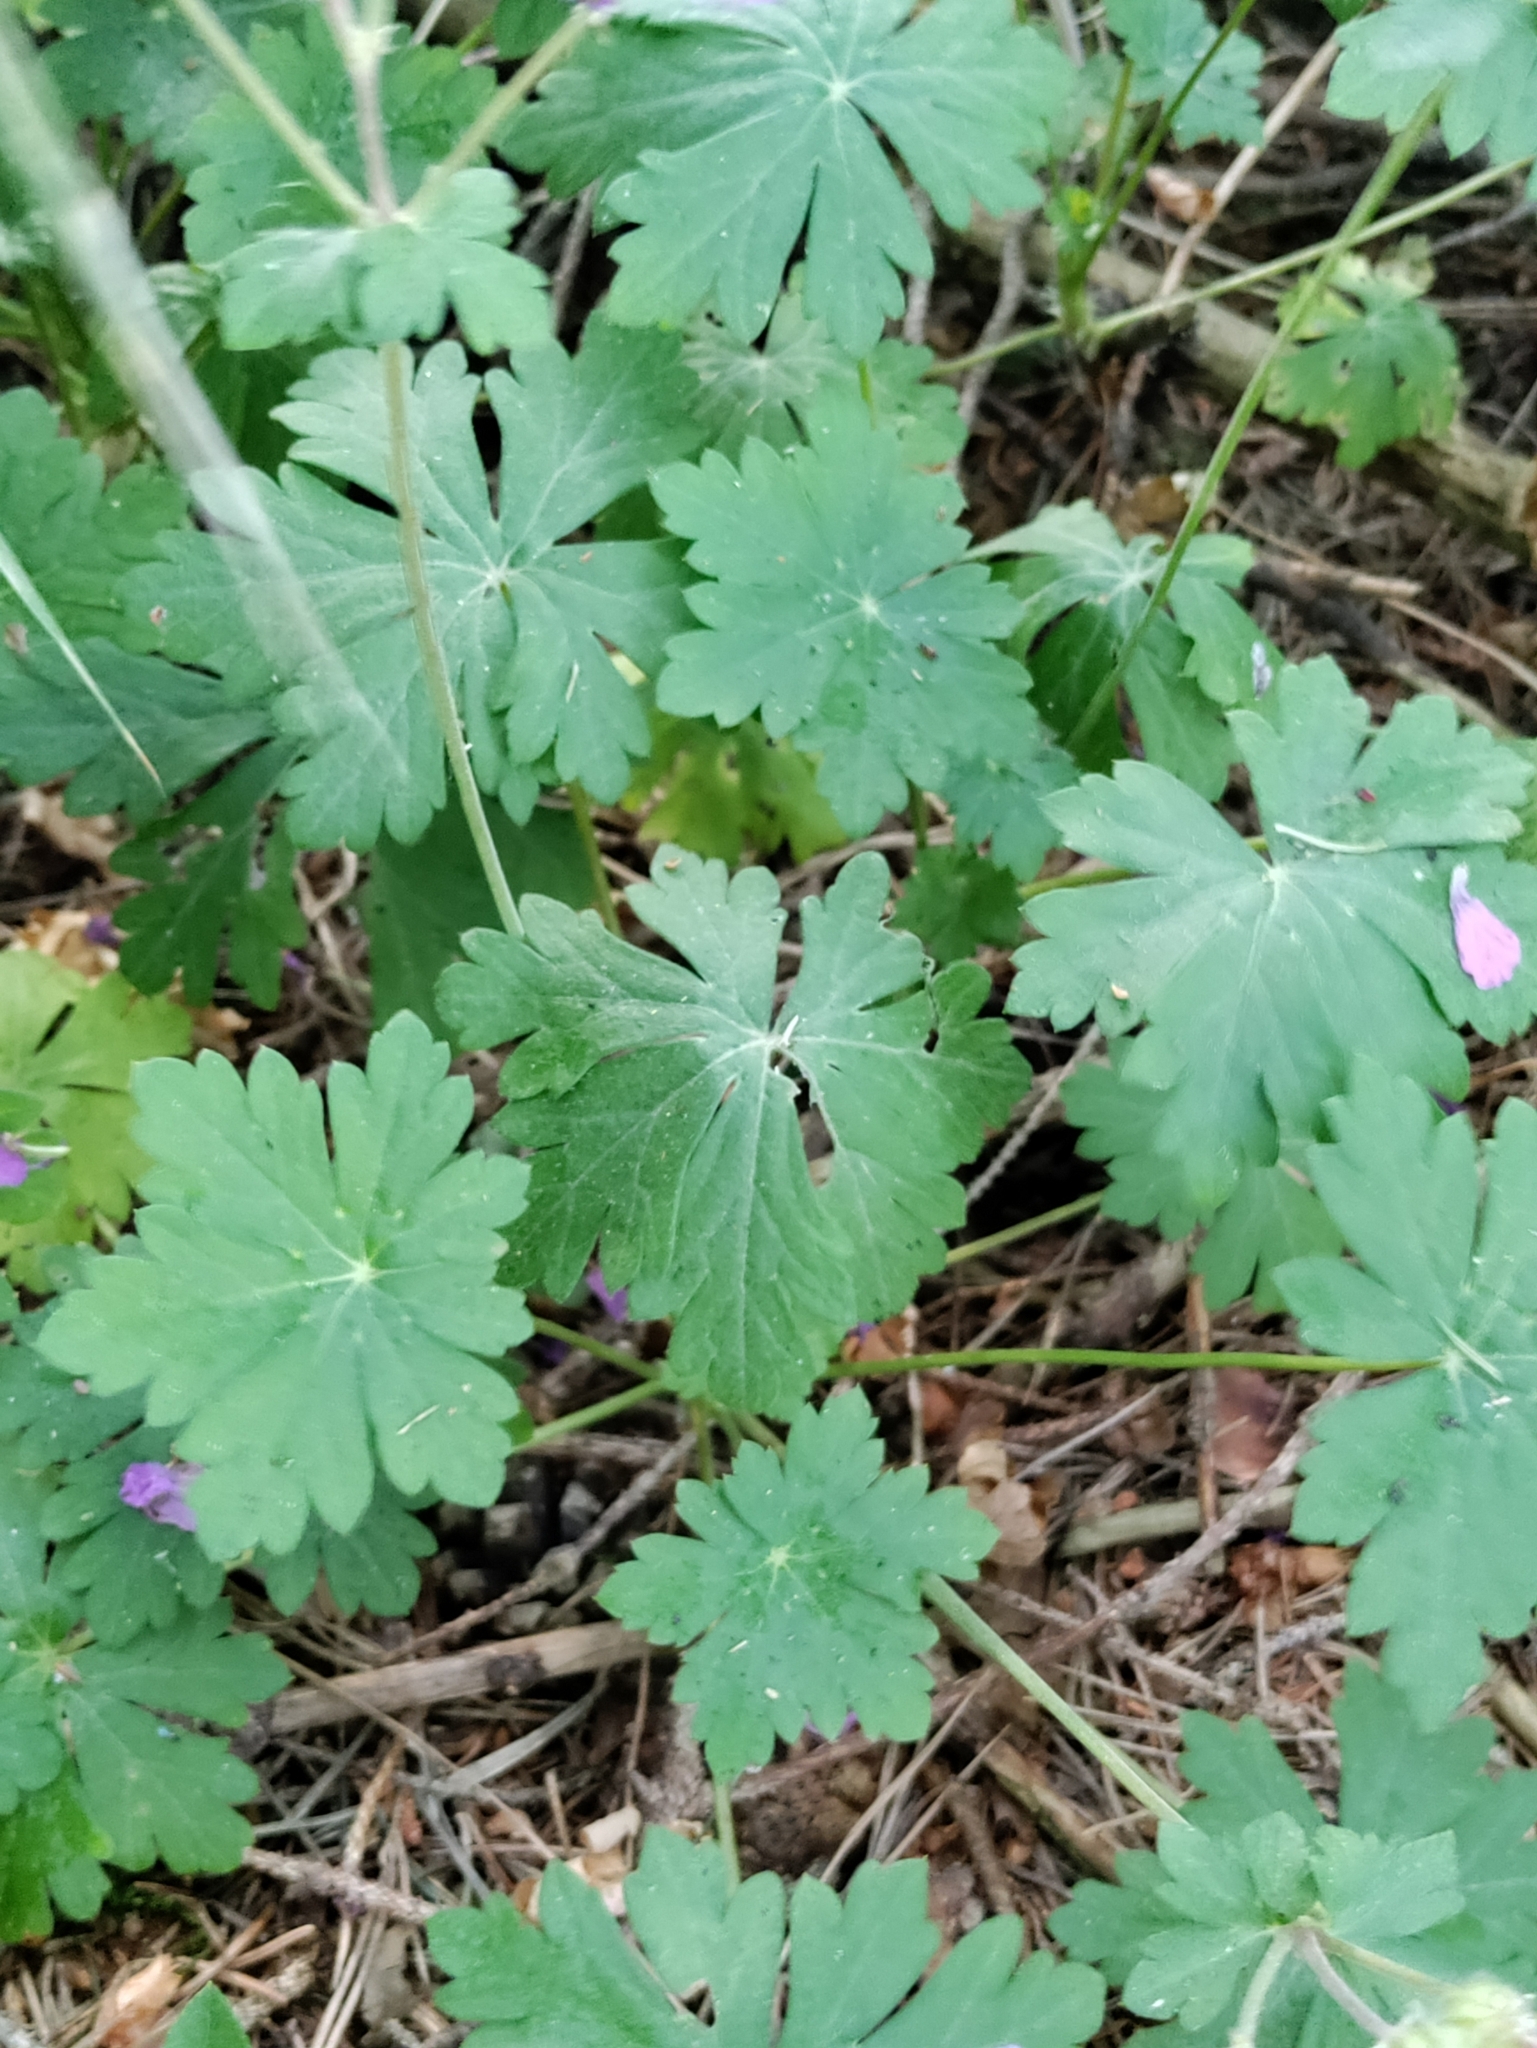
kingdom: Plantae
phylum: Tracheophyta
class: Magnoliopsida
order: Geraniales
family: Geraniaceae
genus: Geranium
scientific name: Geranium macrorrhizum
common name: Rock crane's-bill
